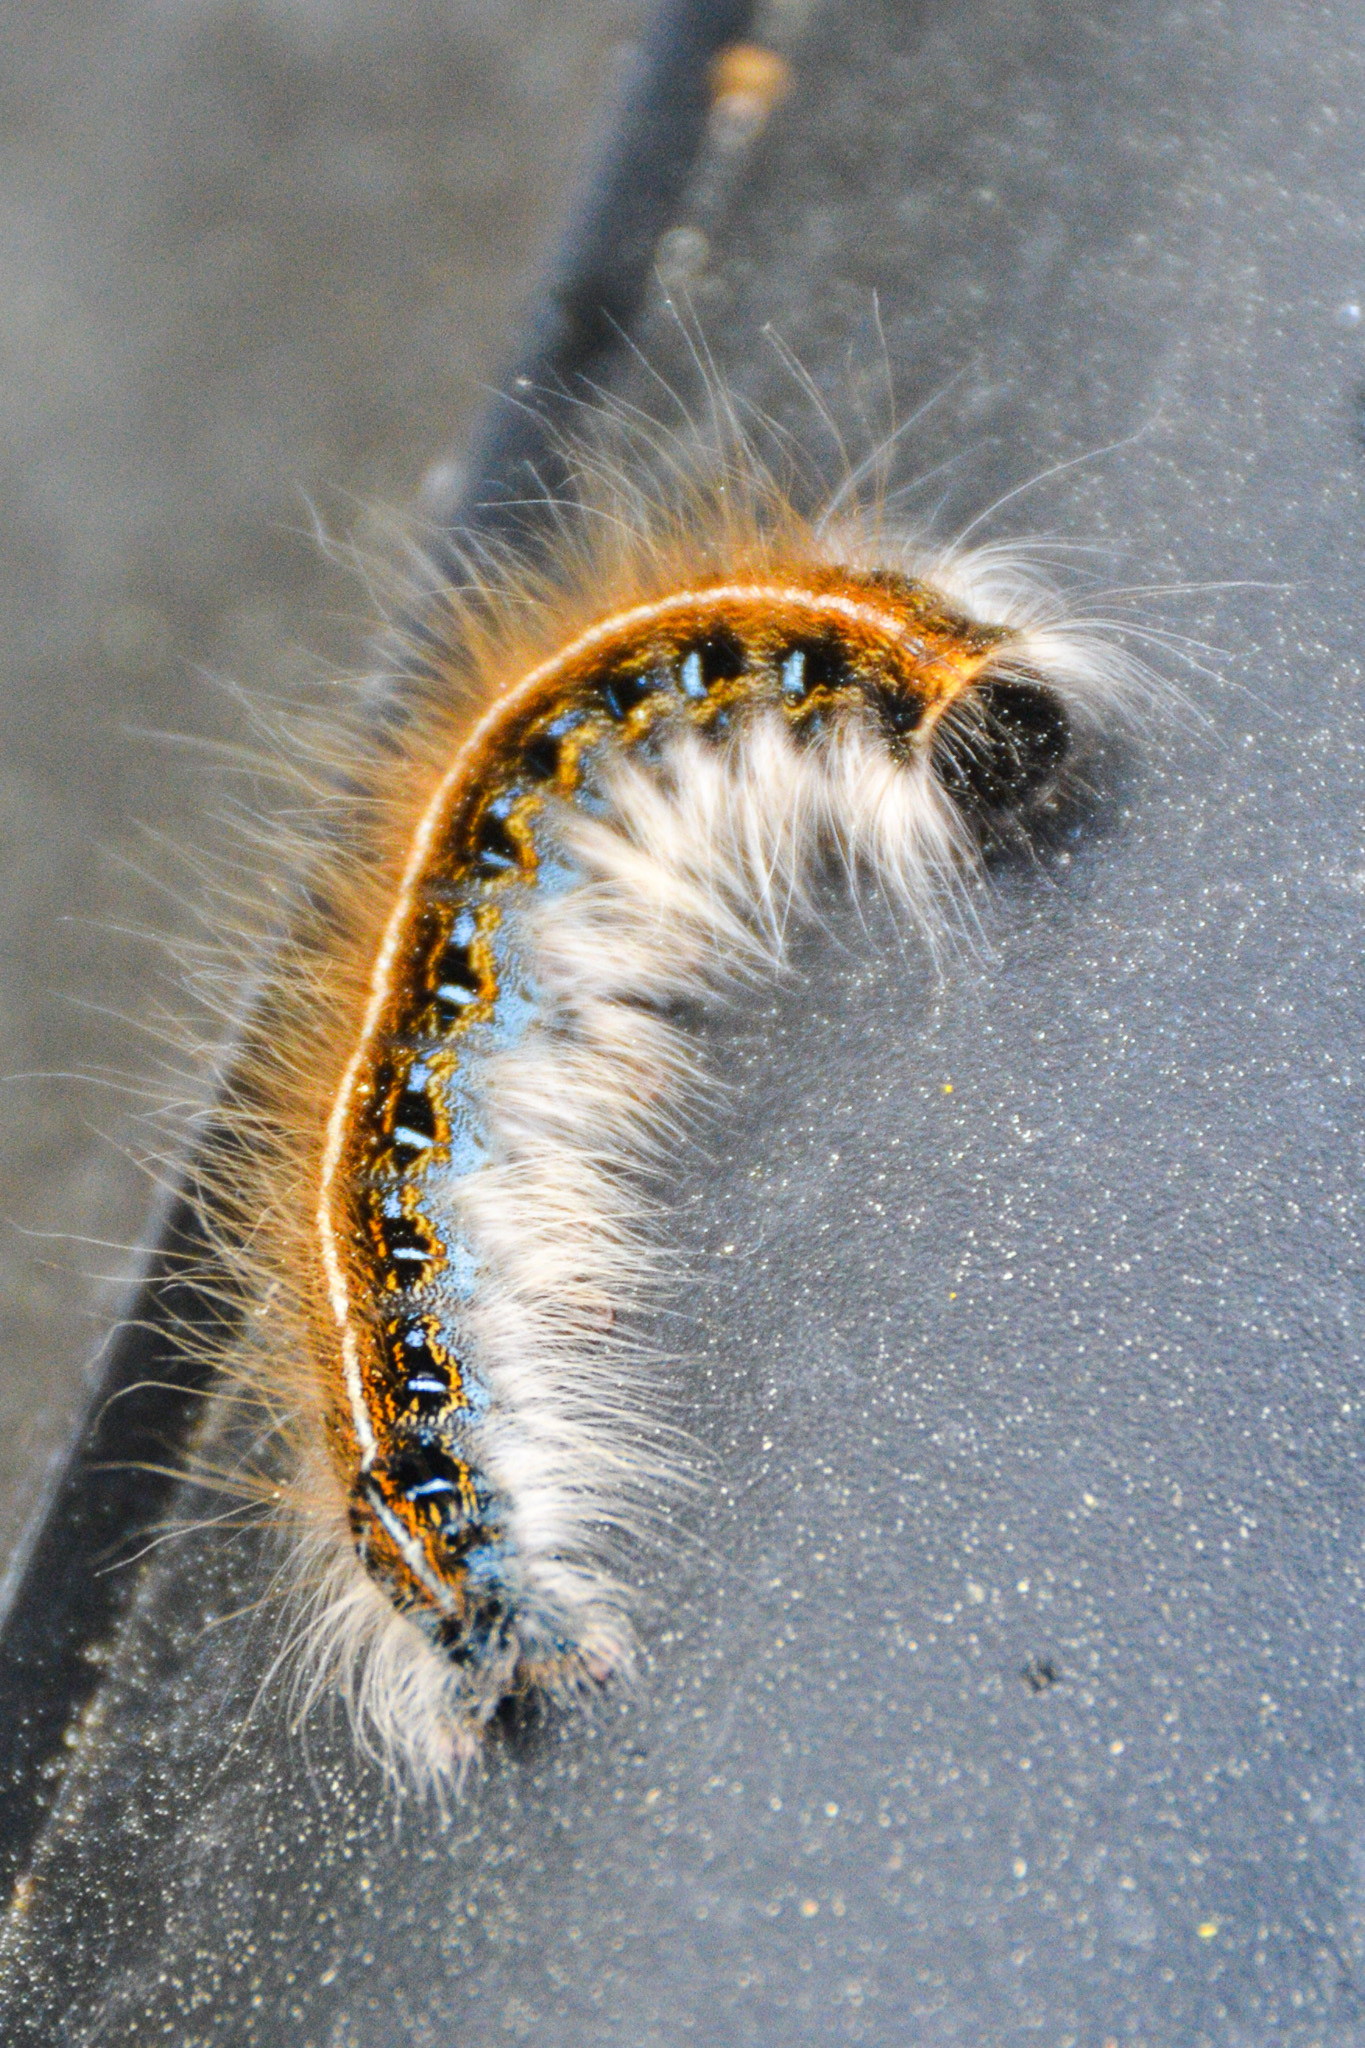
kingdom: Animalia
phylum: Arthropoda
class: Insecta
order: Lepidoptera
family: Lasiocampidae
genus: Malacosoma
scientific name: Malacosoma americana
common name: Eastern tent caterpillar moth
